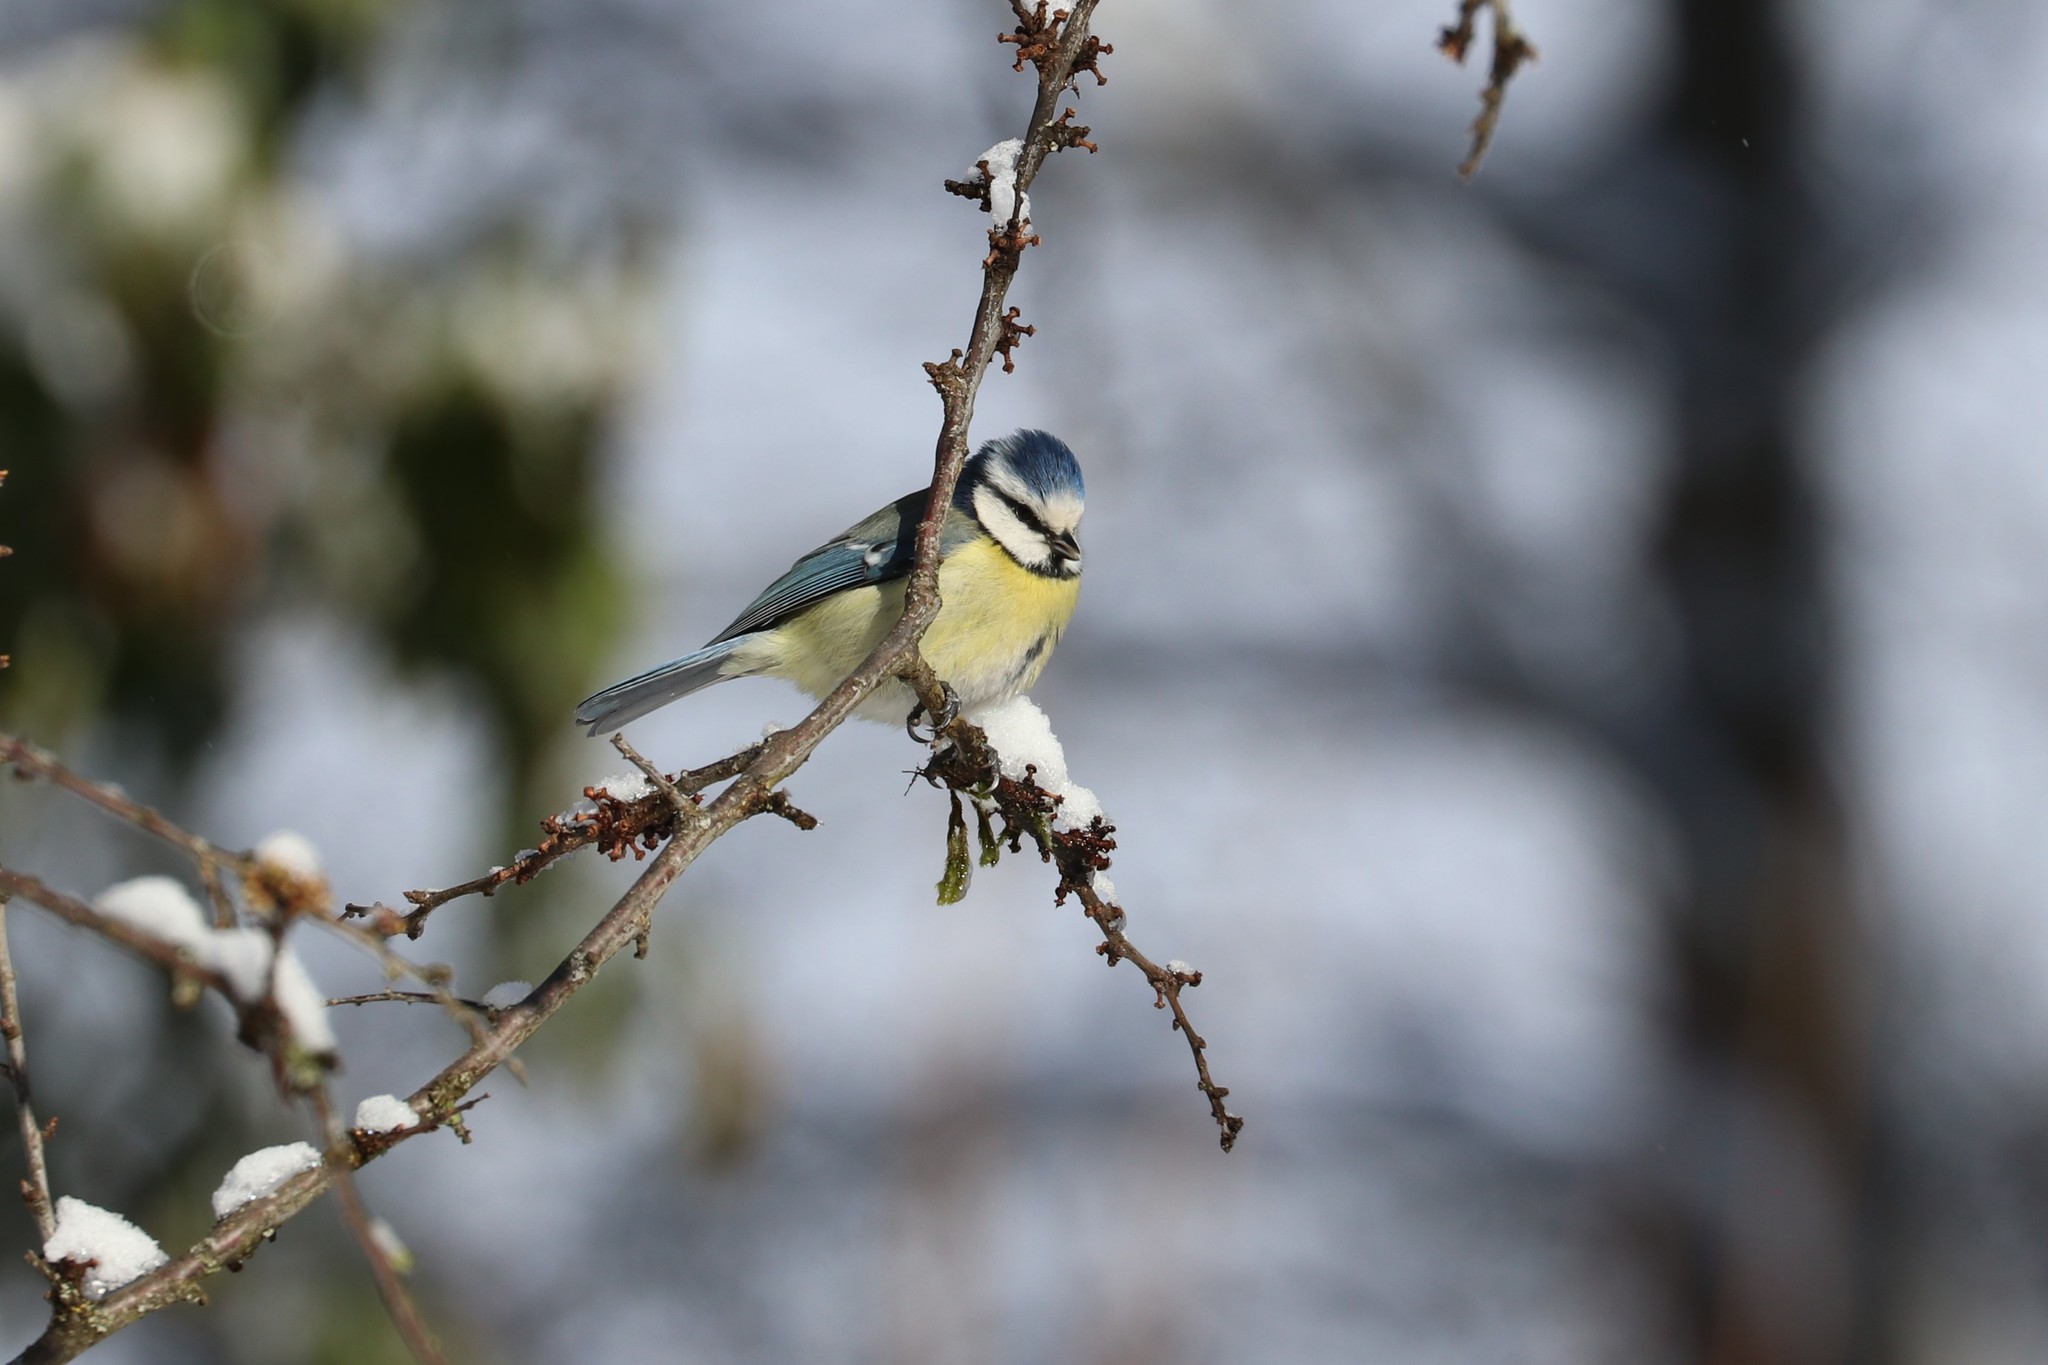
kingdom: Animalia
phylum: Chordata
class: Aves
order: Passeriformes
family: Paridae
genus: Cyanistes
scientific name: Cyanistes caeruleus
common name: Eurasian blue tit
